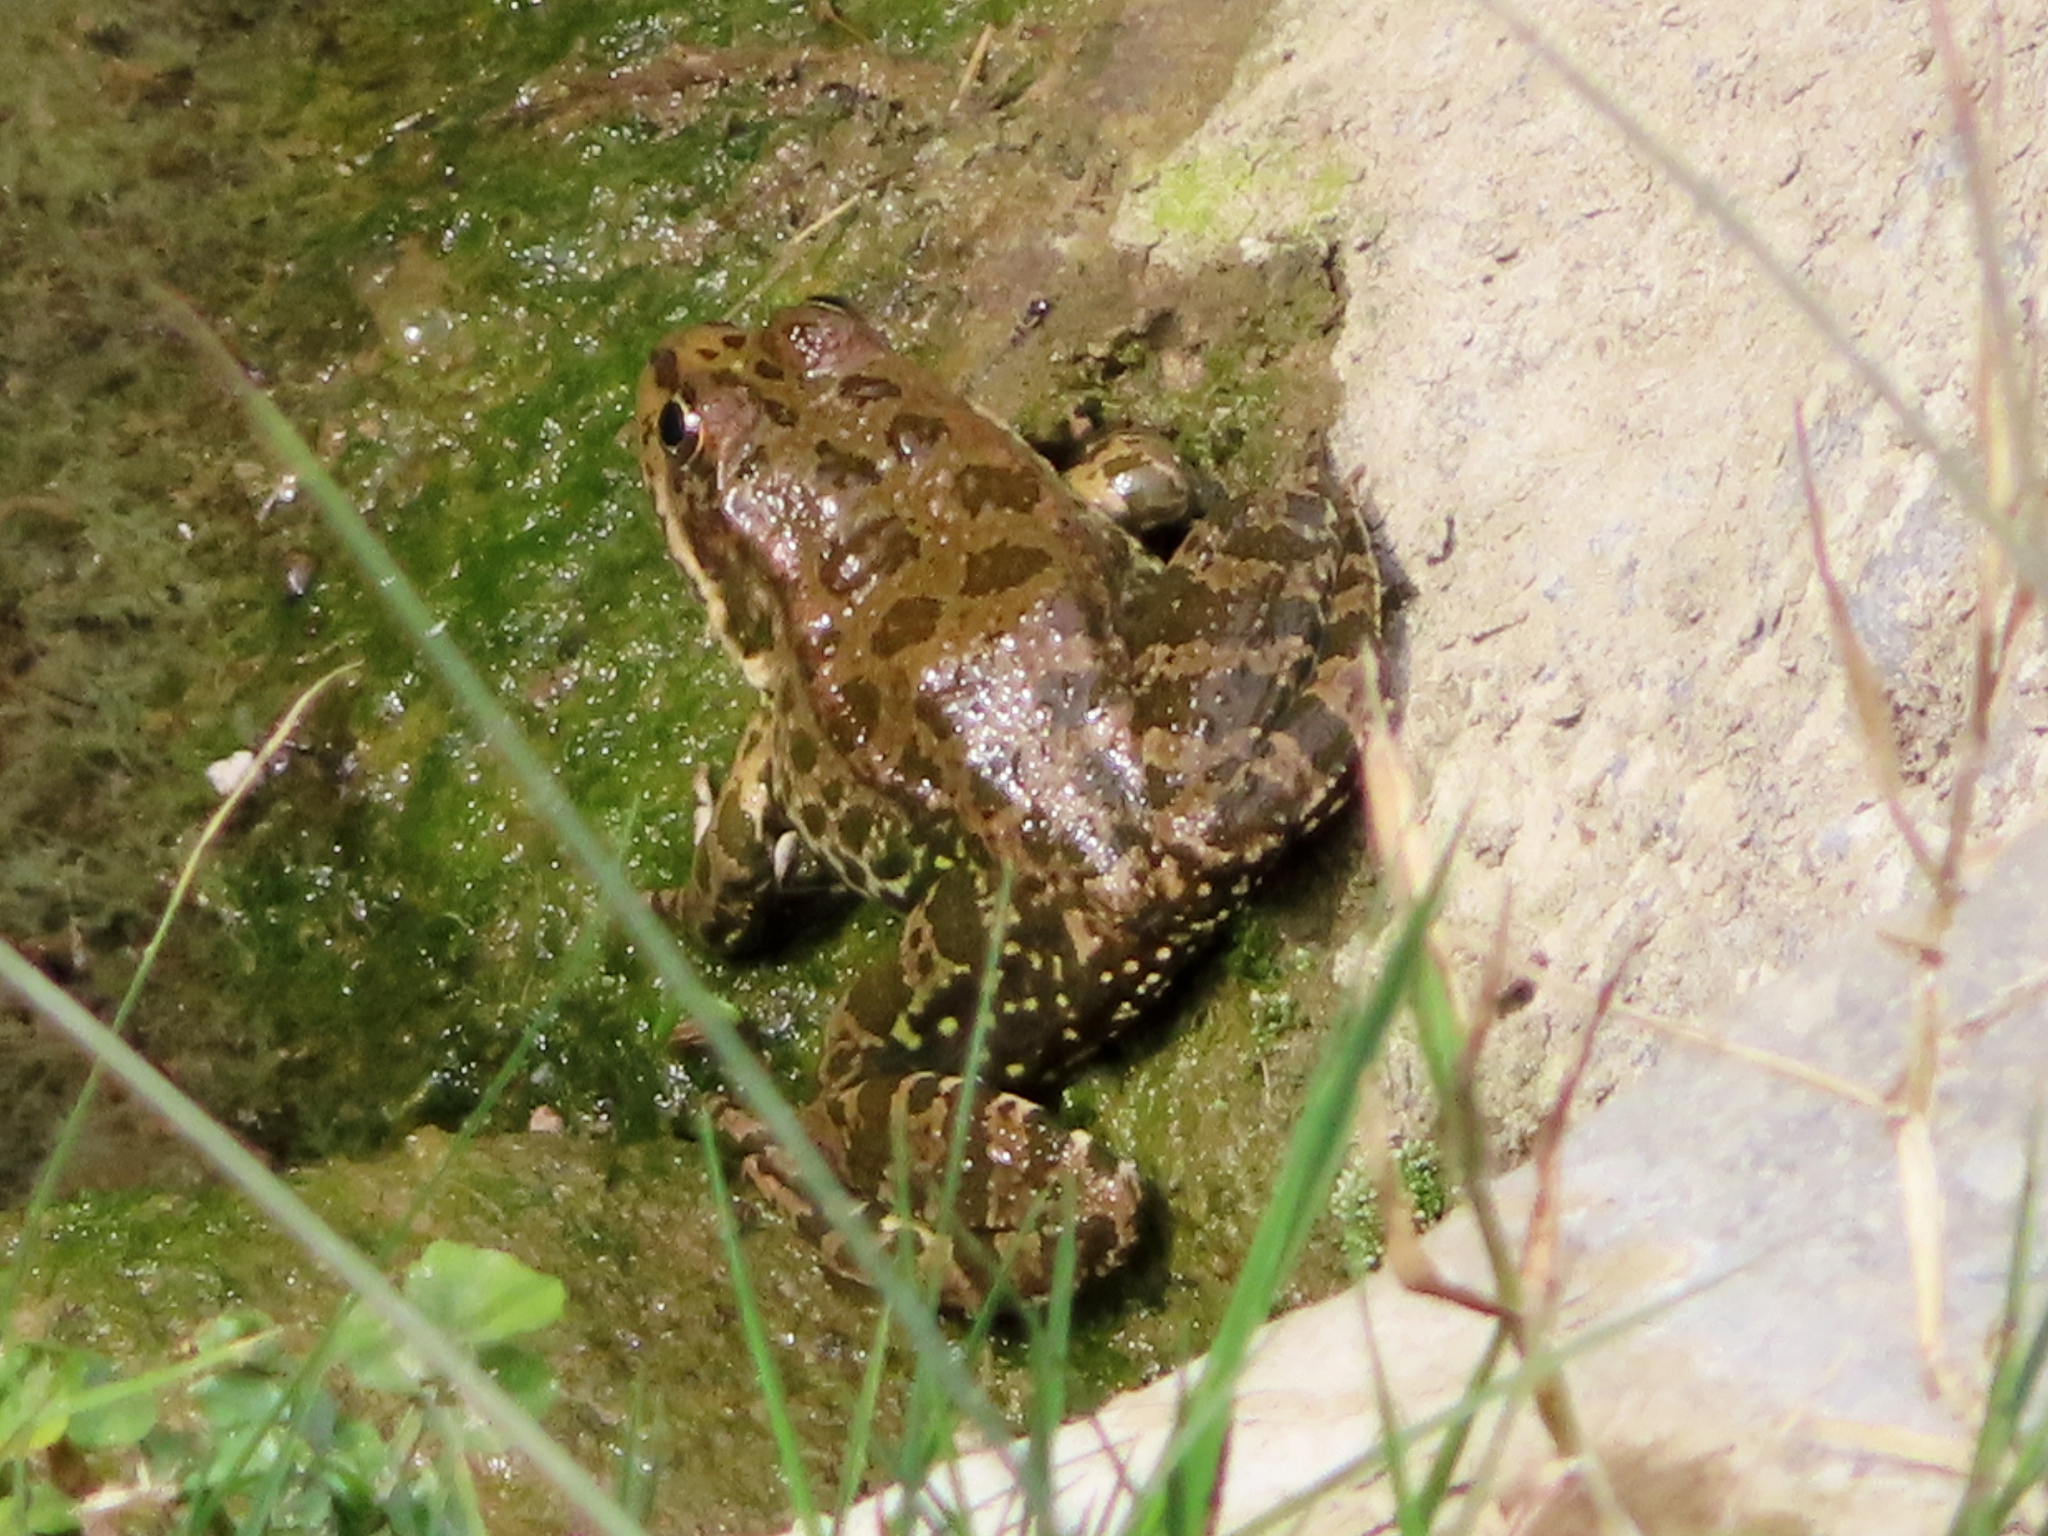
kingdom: Animalia
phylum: Chordata
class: Amphibia
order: Anura
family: Ranidae
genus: Pelophylax
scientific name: Pelophylax ridibundus
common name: Marsh frog
